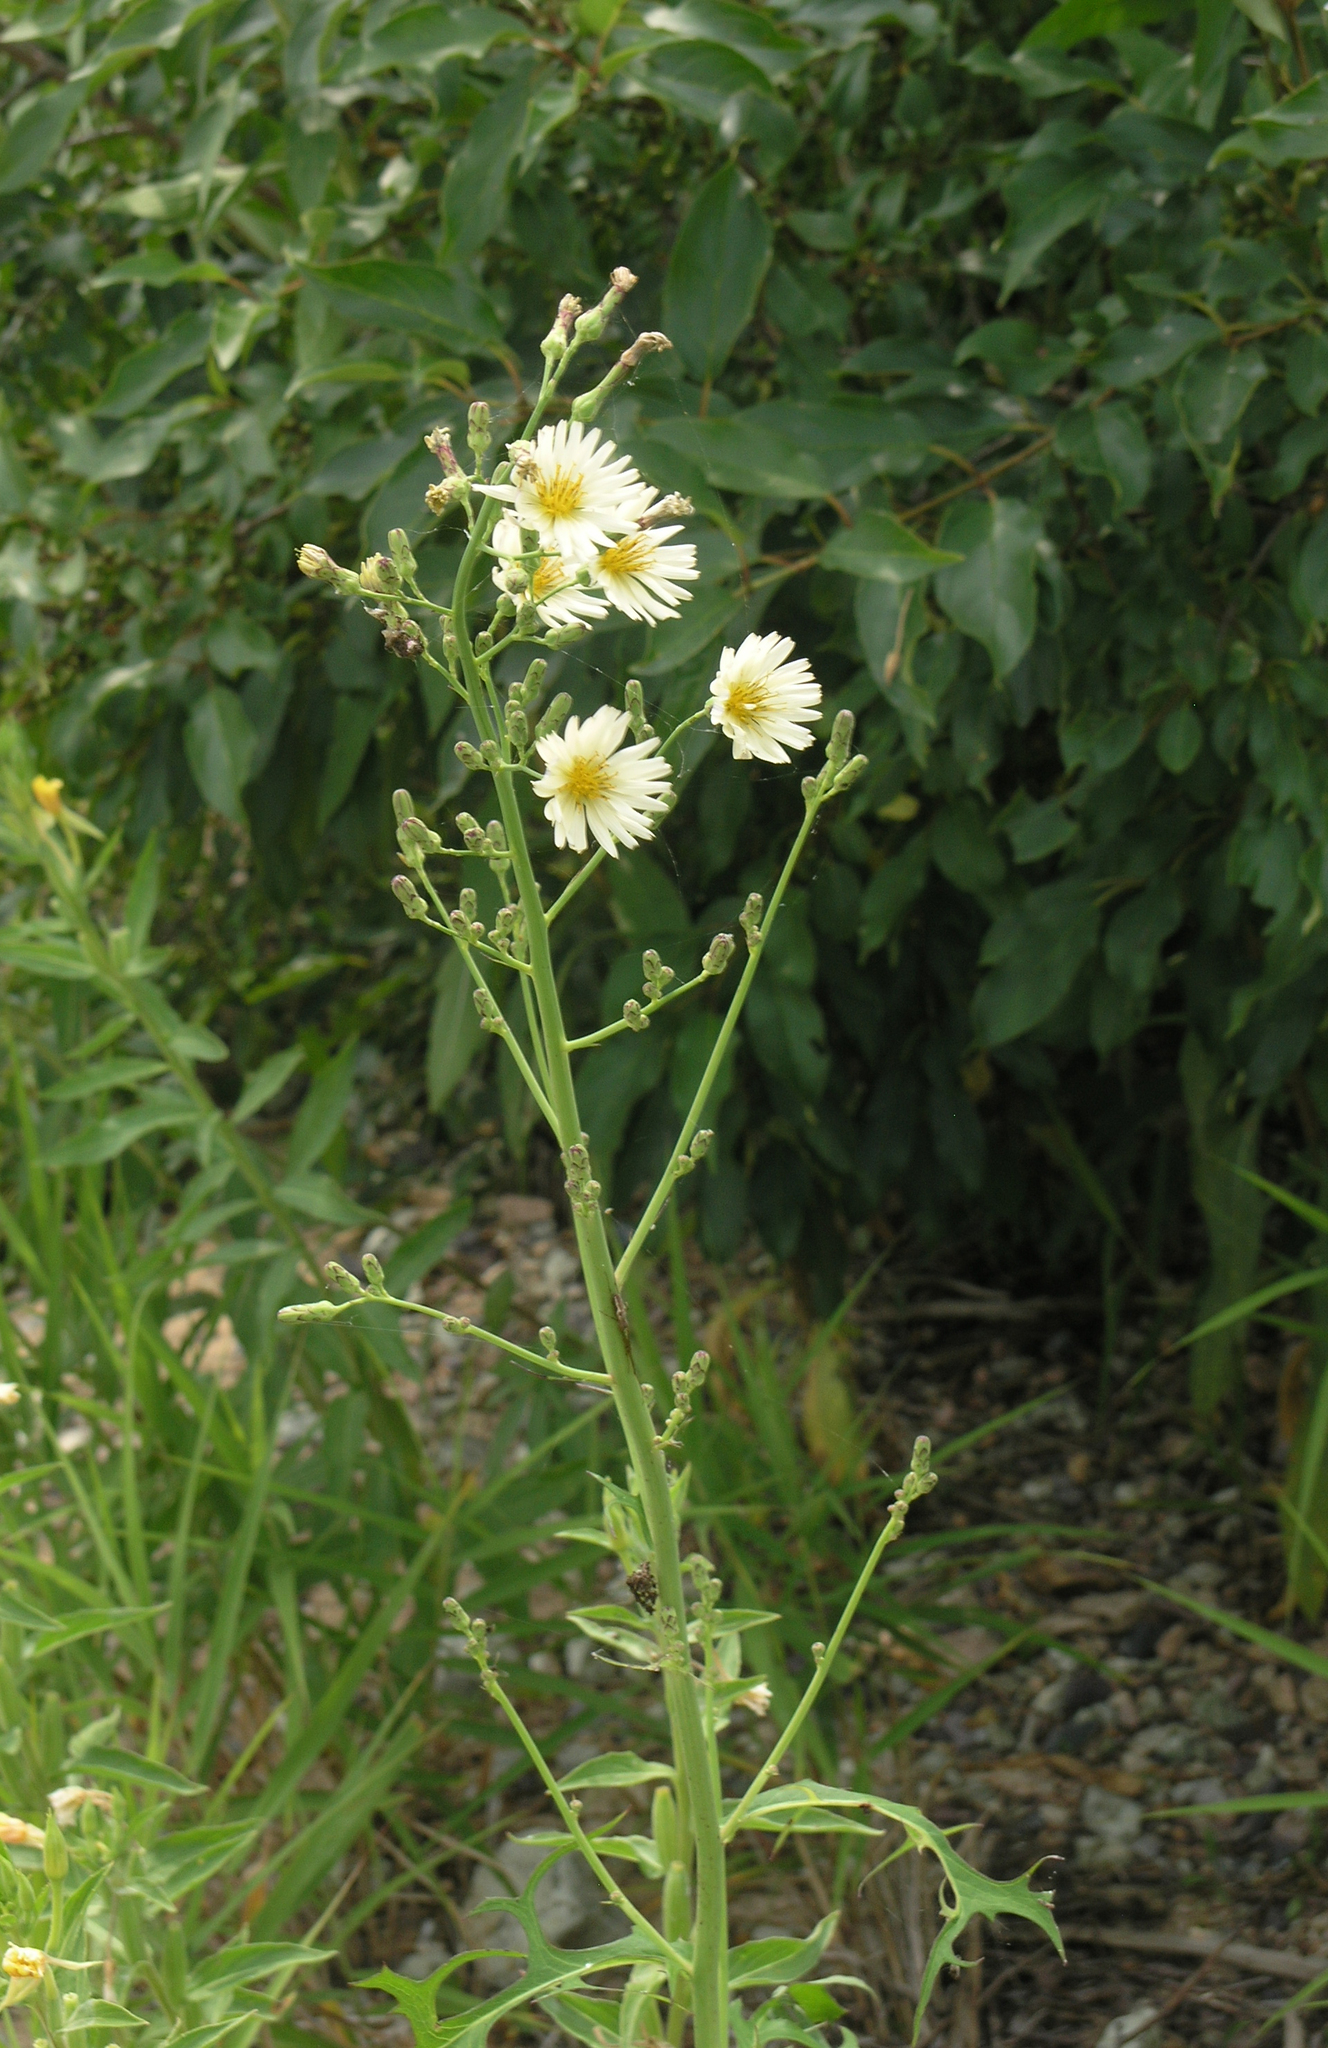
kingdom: Plantae
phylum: Tracheophyta
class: Magnoliopsida
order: Asterales
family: Asteraceae
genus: Lactuca
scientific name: Lactuca indica
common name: Wild lettuce
